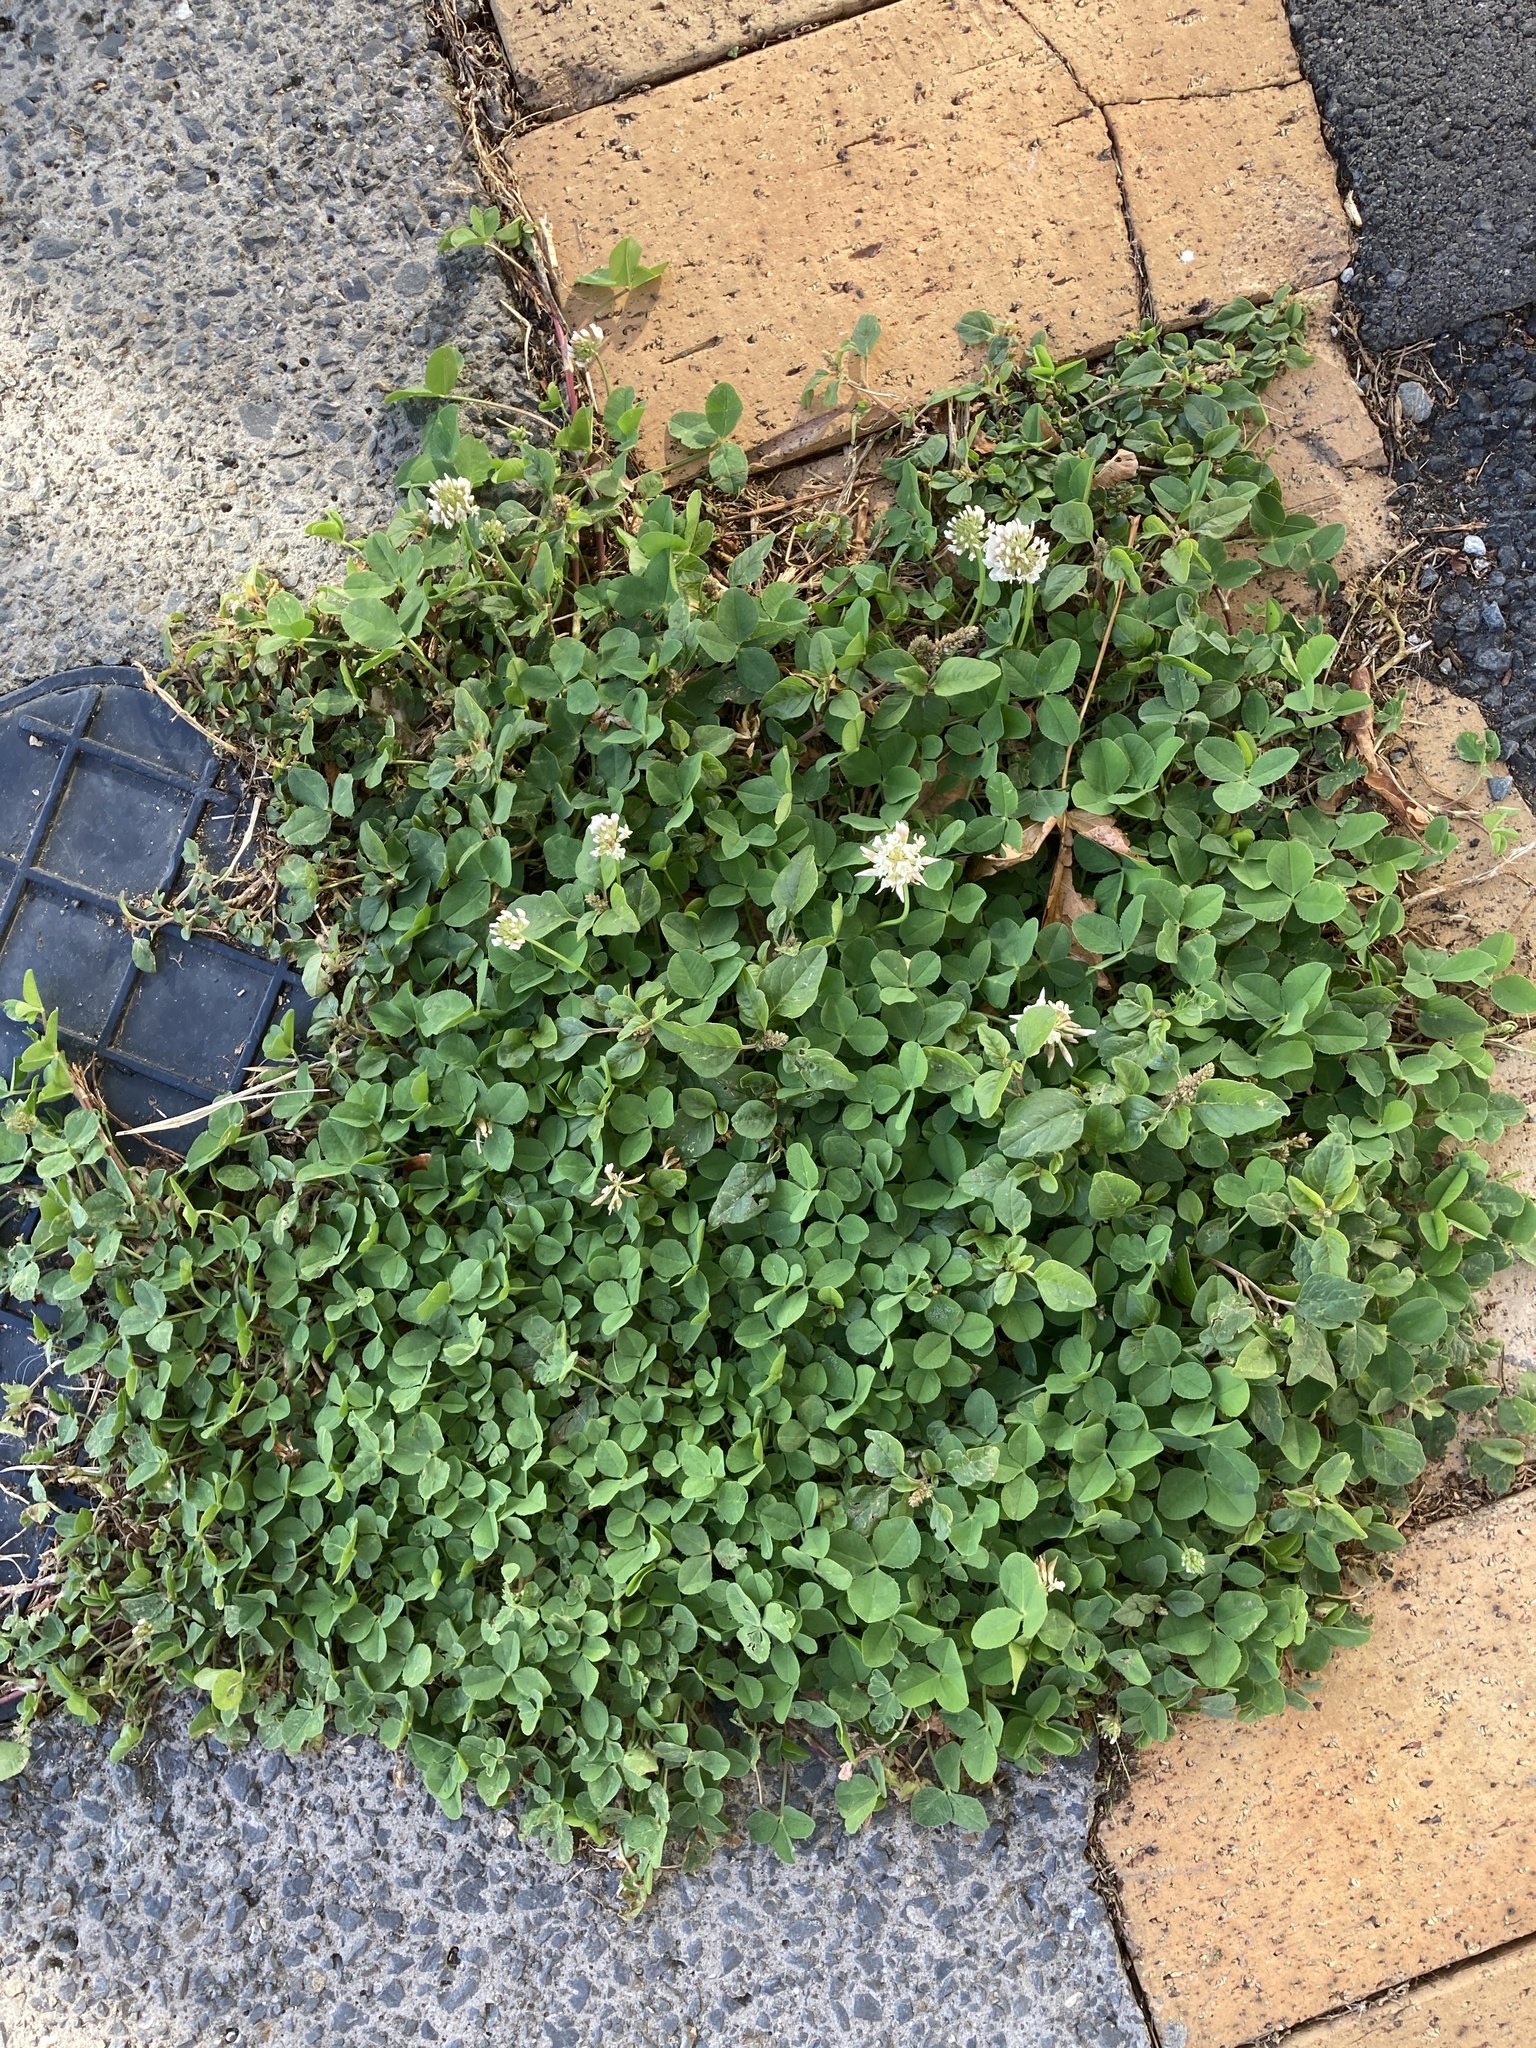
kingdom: Plantae
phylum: Tracheophyta
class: Magnoliopsida
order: Fabales
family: Fabaceae
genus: Trifolium
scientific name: Trifolium repens
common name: White clover
